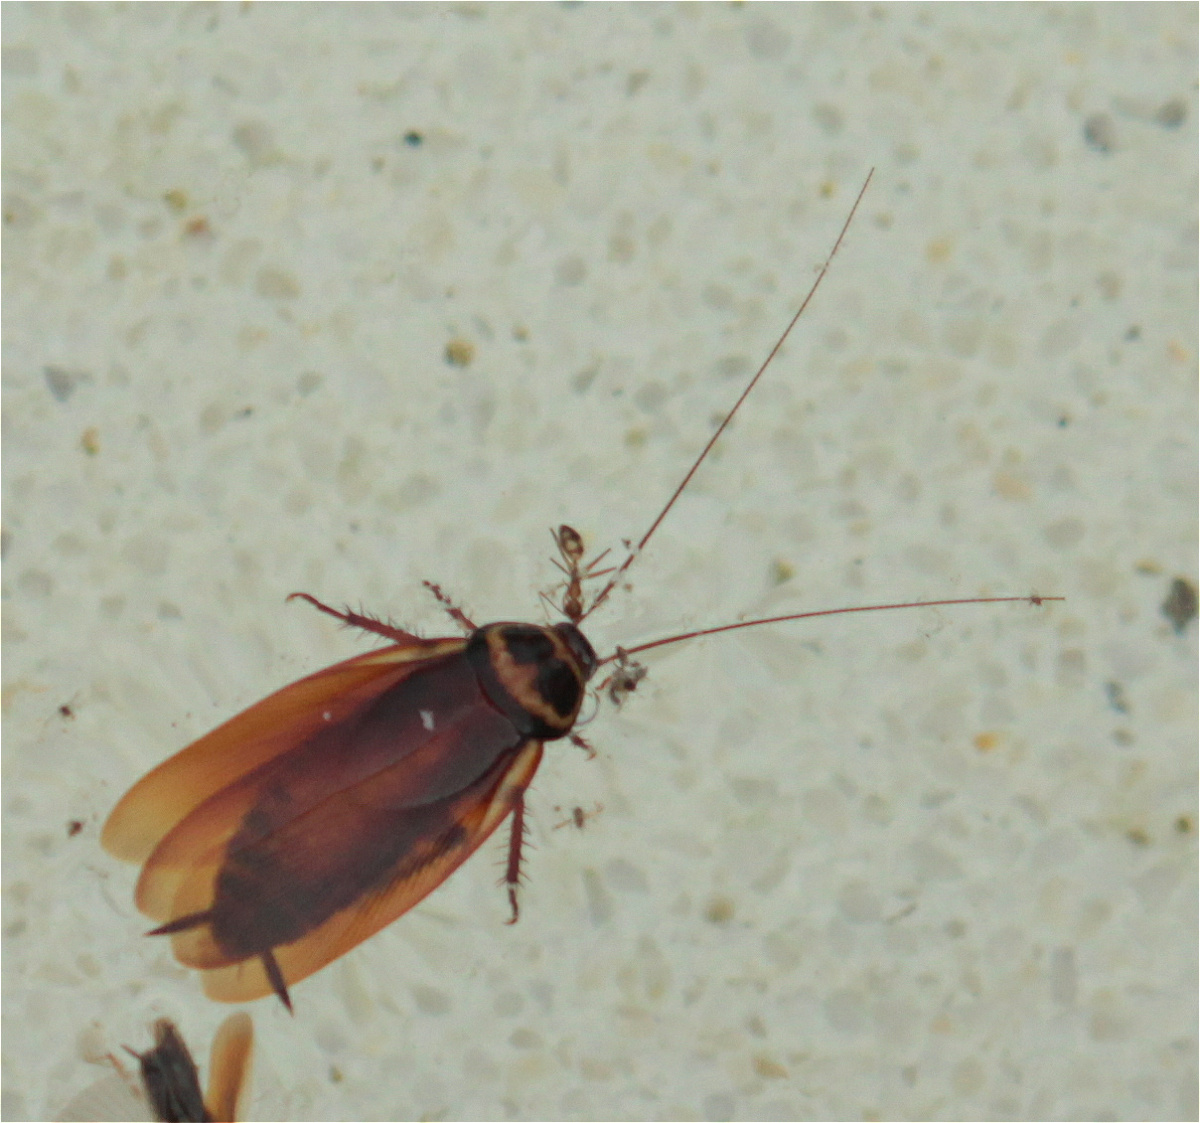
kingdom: Animalia
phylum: Arthropoda
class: Insecta
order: Blattodea
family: Blattidae
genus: Periplaneta
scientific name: Periplaneta australasiae
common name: Australian cockroach
